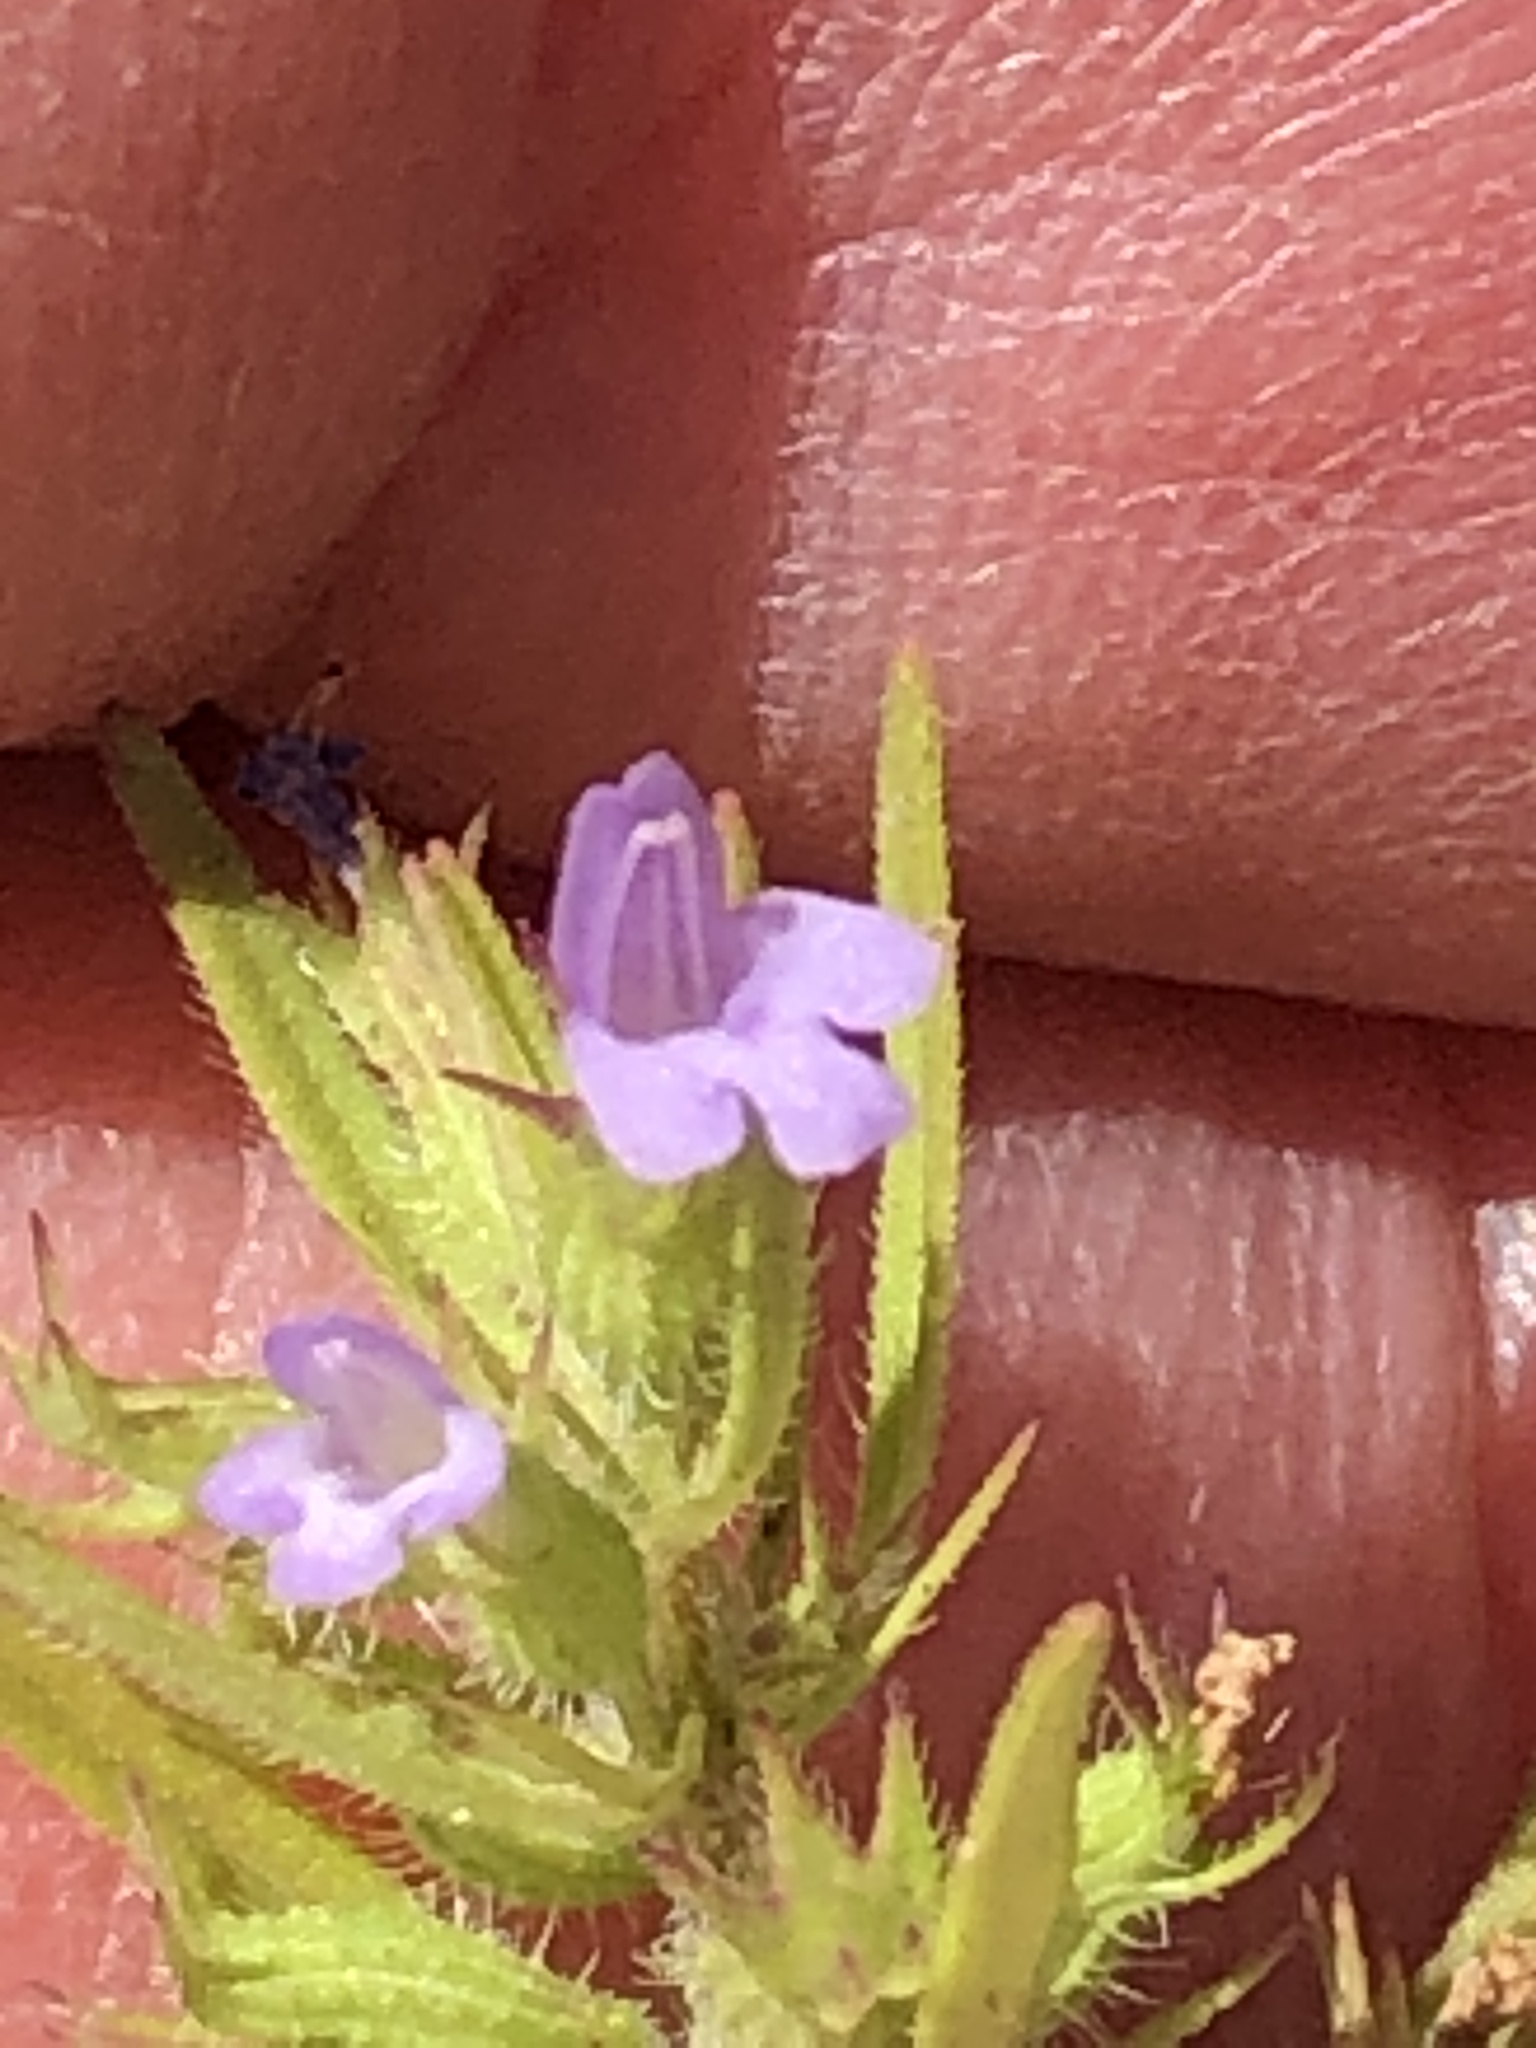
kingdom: Plantae
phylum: Tracheophyta
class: Magnoliopsida
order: Lamiales
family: Lamiaceae
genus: Hedeoma
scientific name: Hedeoma hispida
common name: Mock pennyroyal
